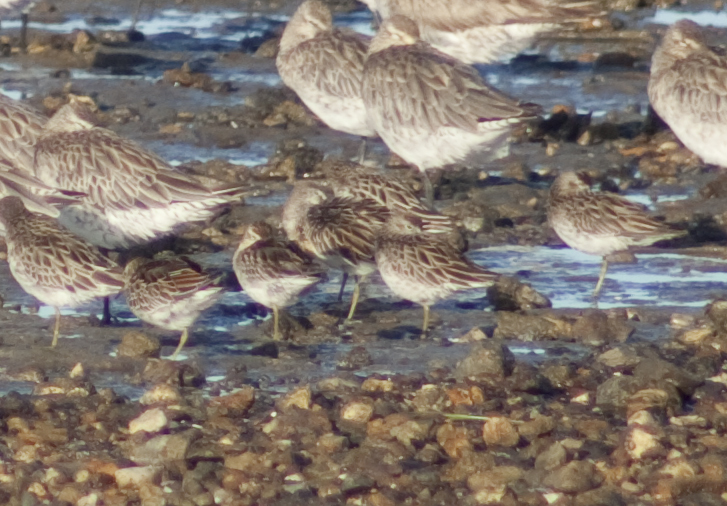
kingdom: Animalia
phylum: Chordata
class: Aves
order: Charadriiformes
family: Scolopacidae
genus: Calidris
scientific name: Calidris acuminata
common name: Sharp-tailed sandpiper
